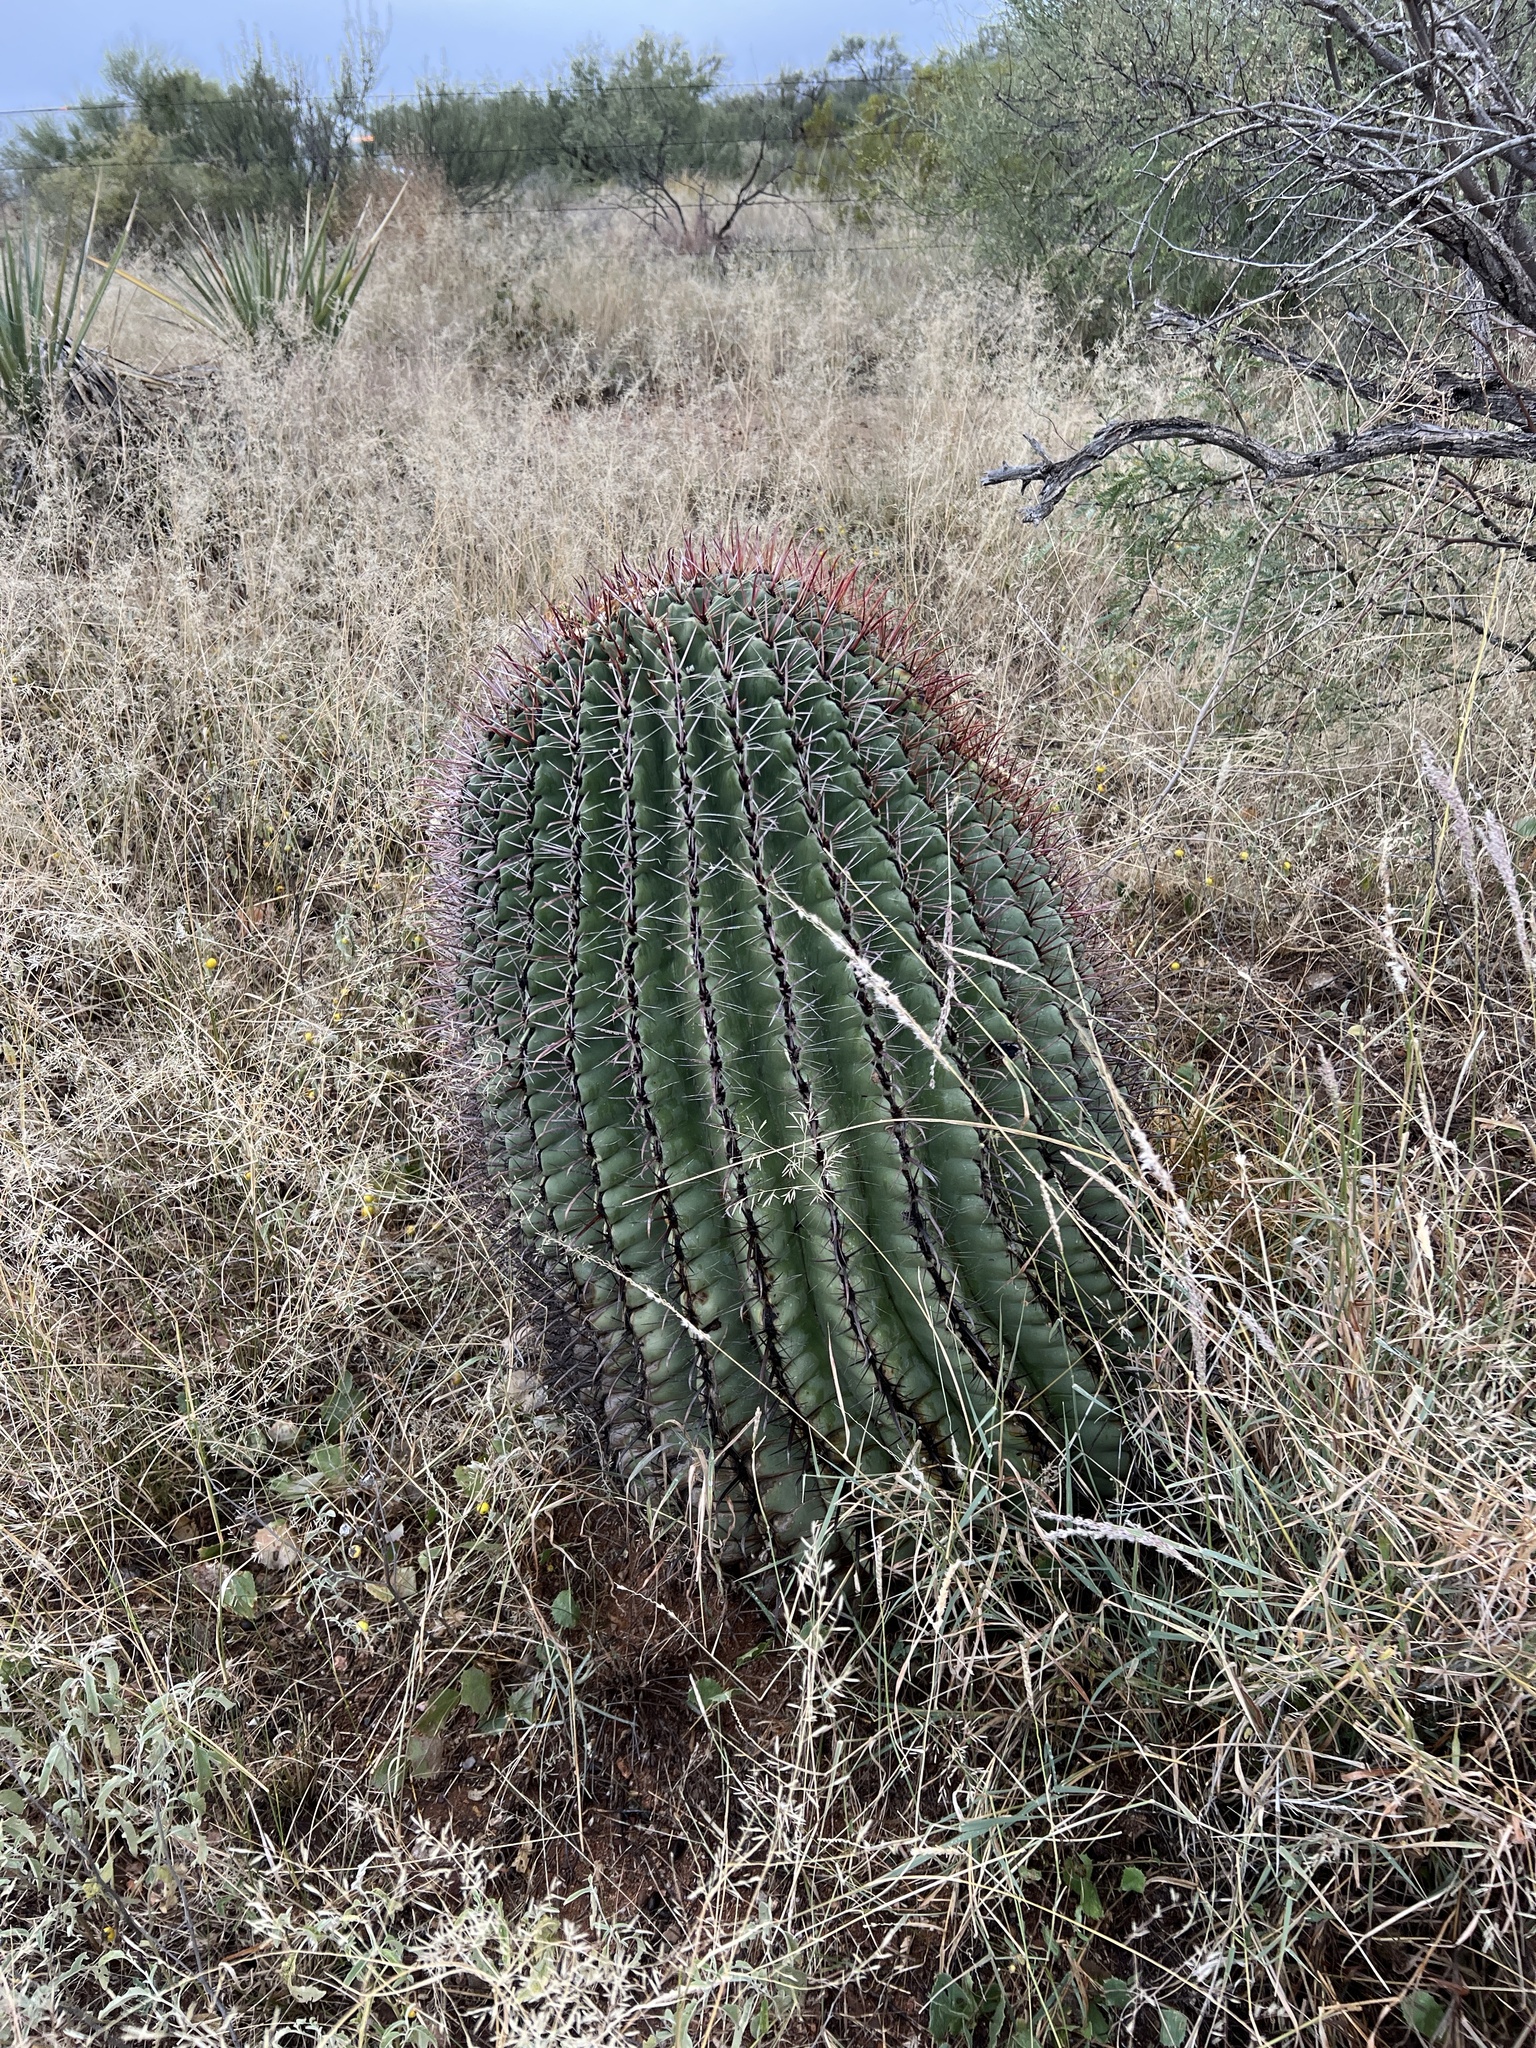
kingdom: Plantae
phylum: Tracheophyta
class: Magnoliopsida
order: Caryophyllales
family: Cactaceae
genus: Ferocactus
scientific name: Ferocactus wislizeni
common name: Candy barrel cactus
